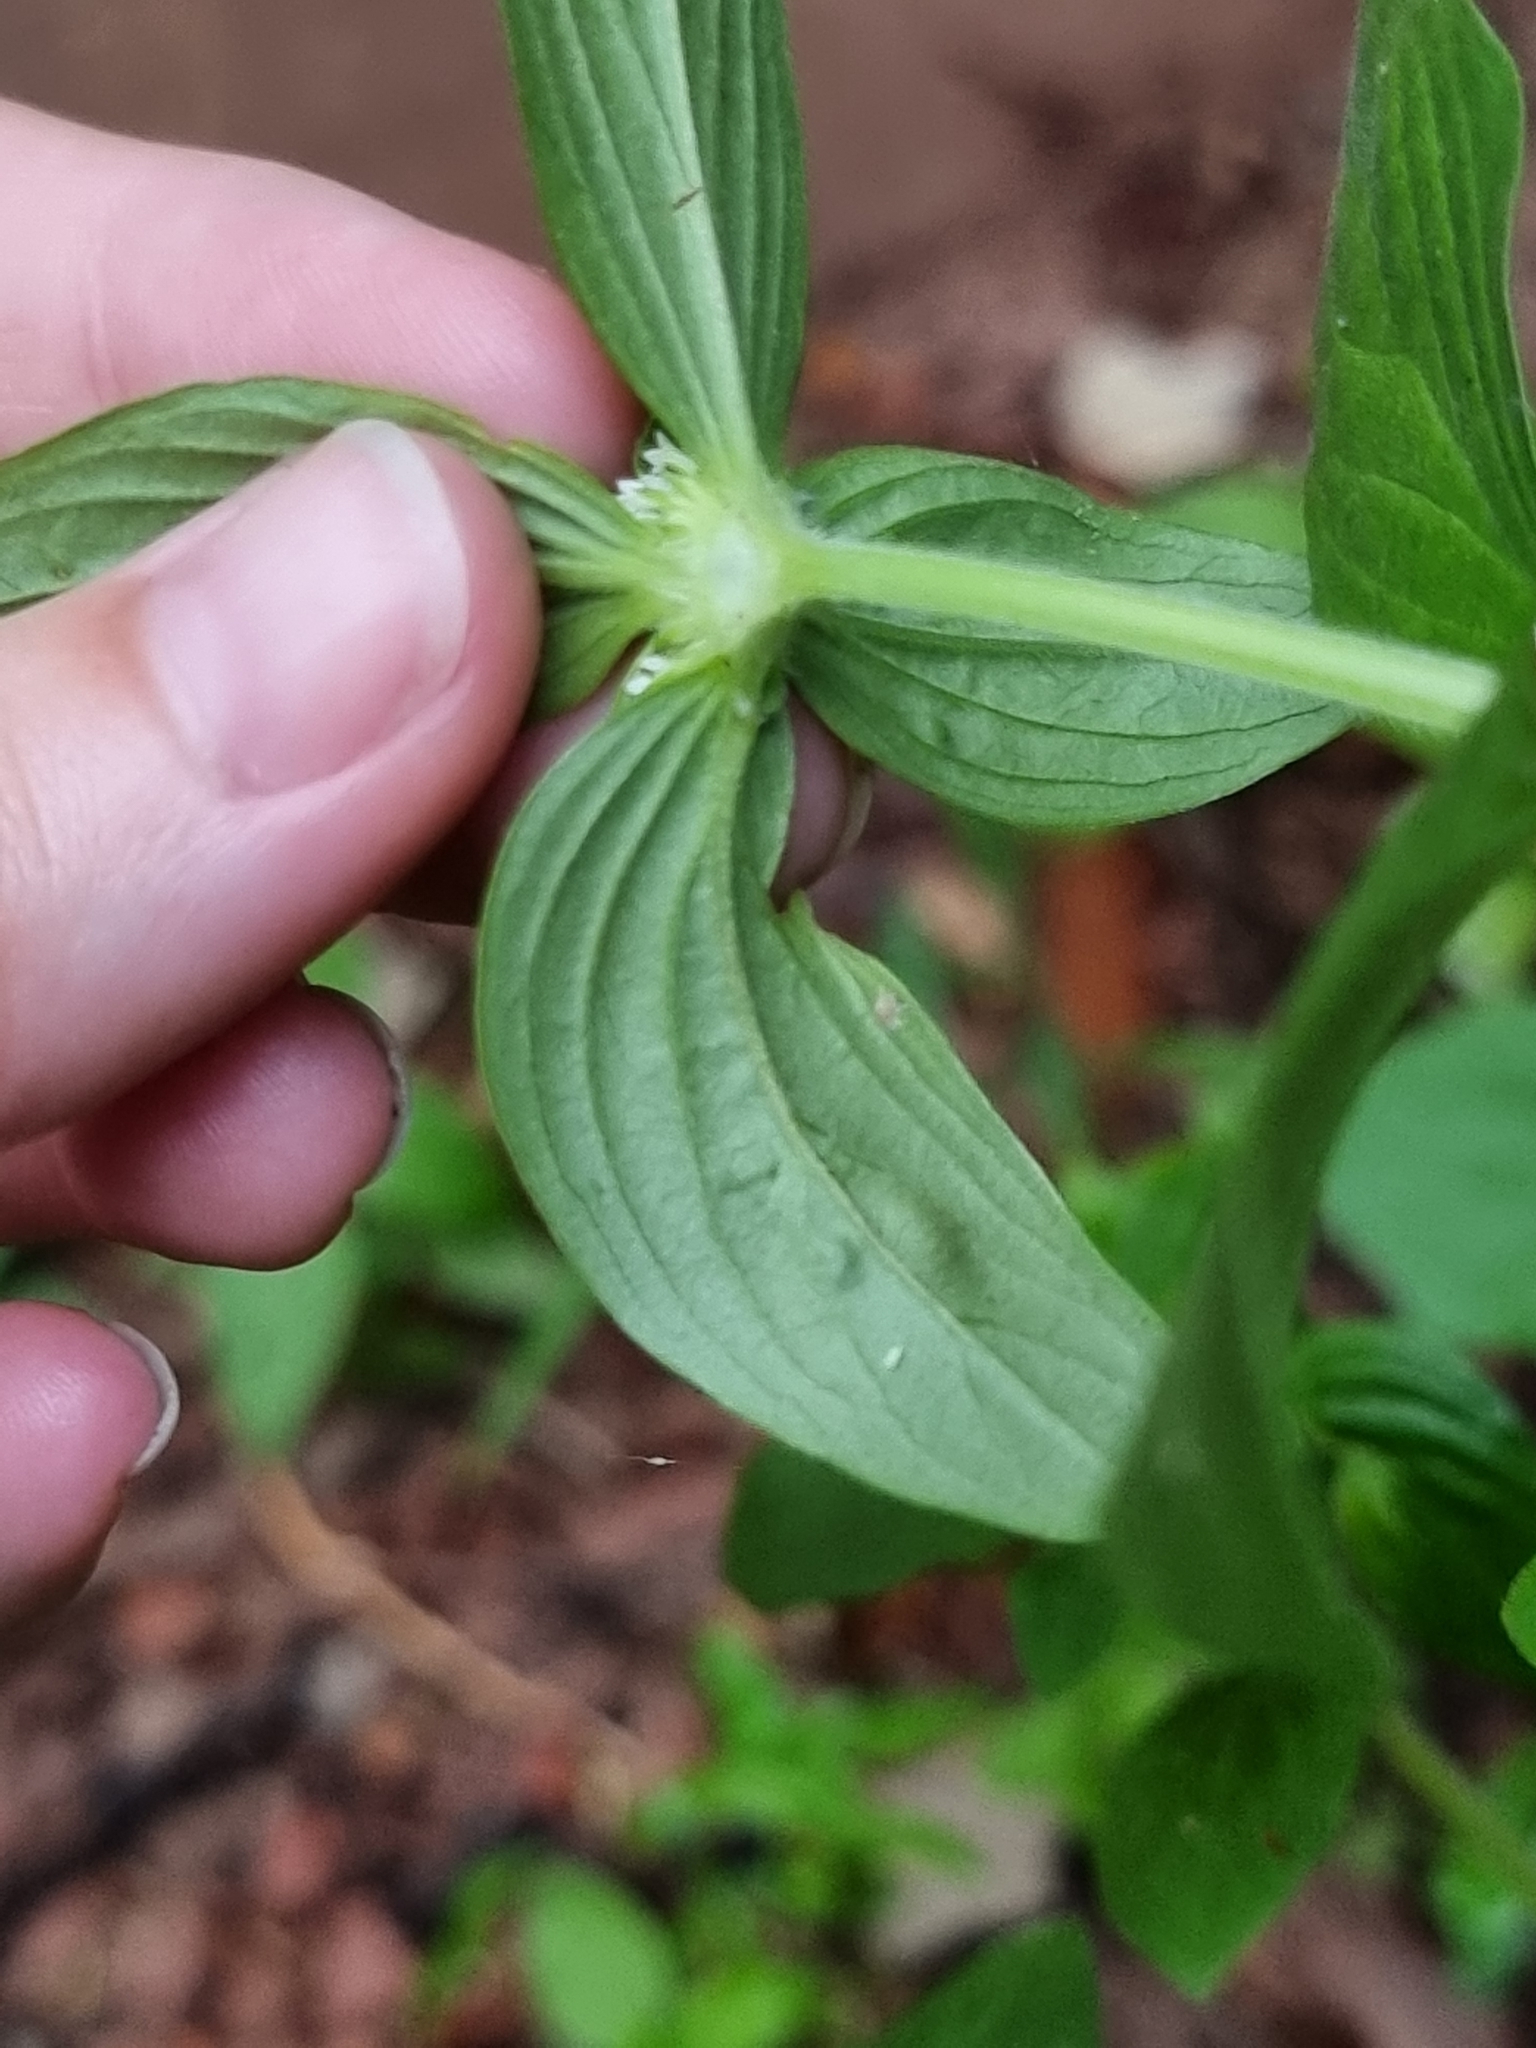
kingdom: Plantae
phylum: Tracheophyta
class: Magnoliopsida
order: Gentianales
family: Rubiaceae
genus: Mitracarpus
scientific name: Mitracarpus hirtus
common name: Tropical girdlepod
